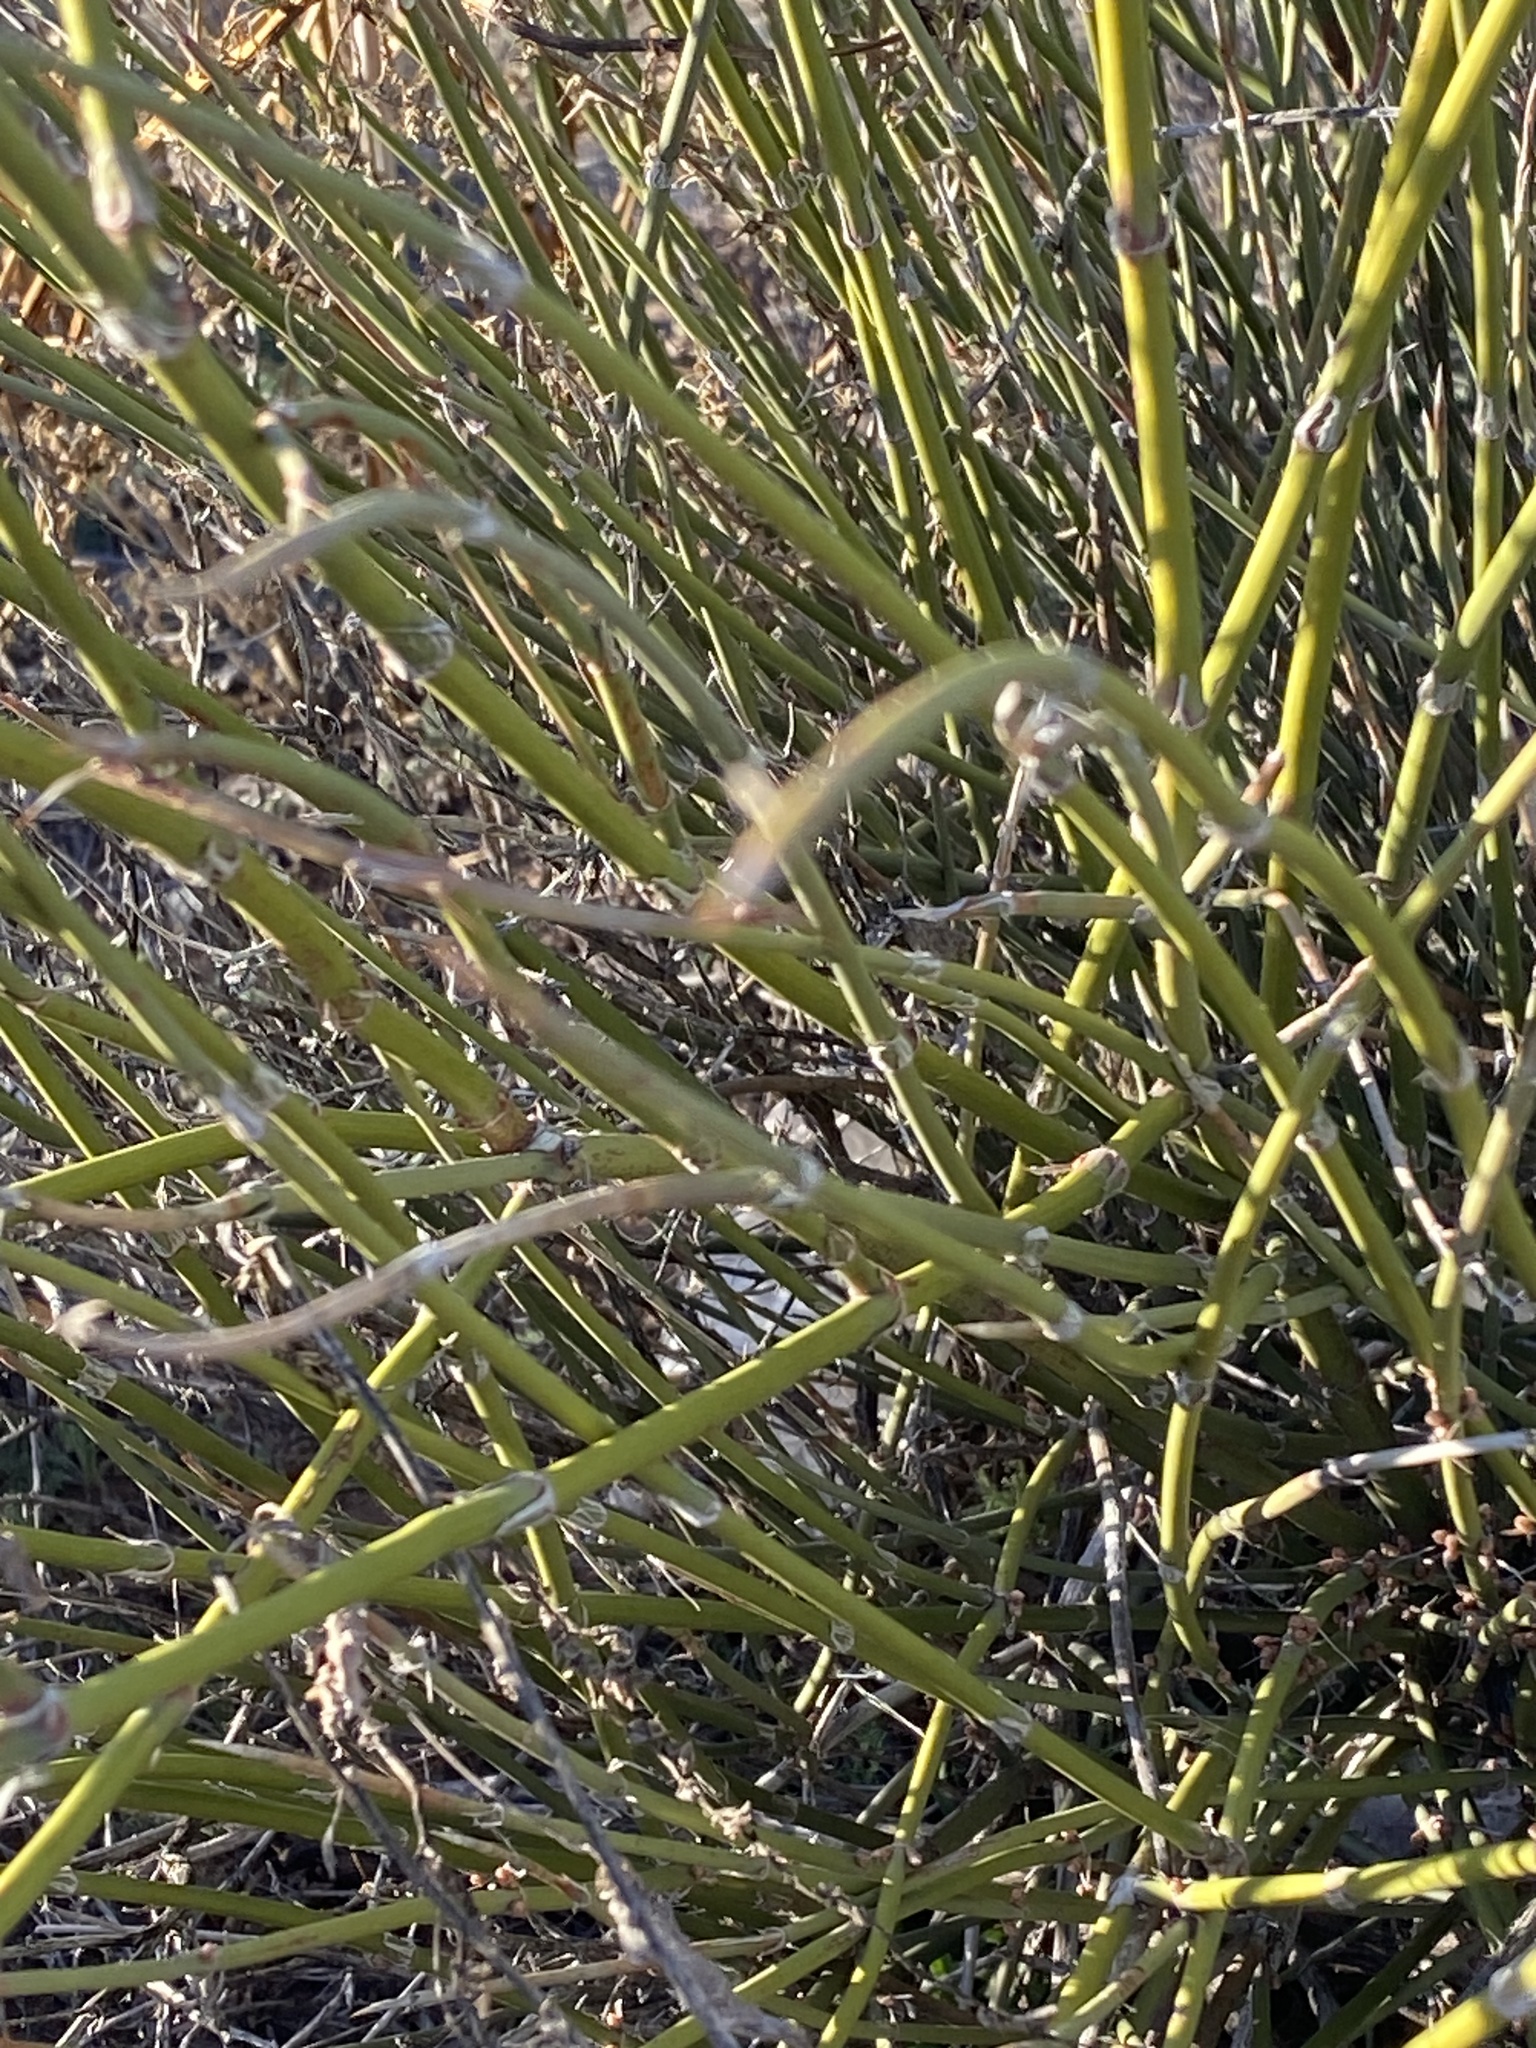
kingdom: Plantae
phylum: Tracheophyta
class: Gnetopsida
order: Ephedrales
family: Ephedraceae
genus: Ephedra
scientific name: Ephedra trifurca
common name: Mexican-tea
